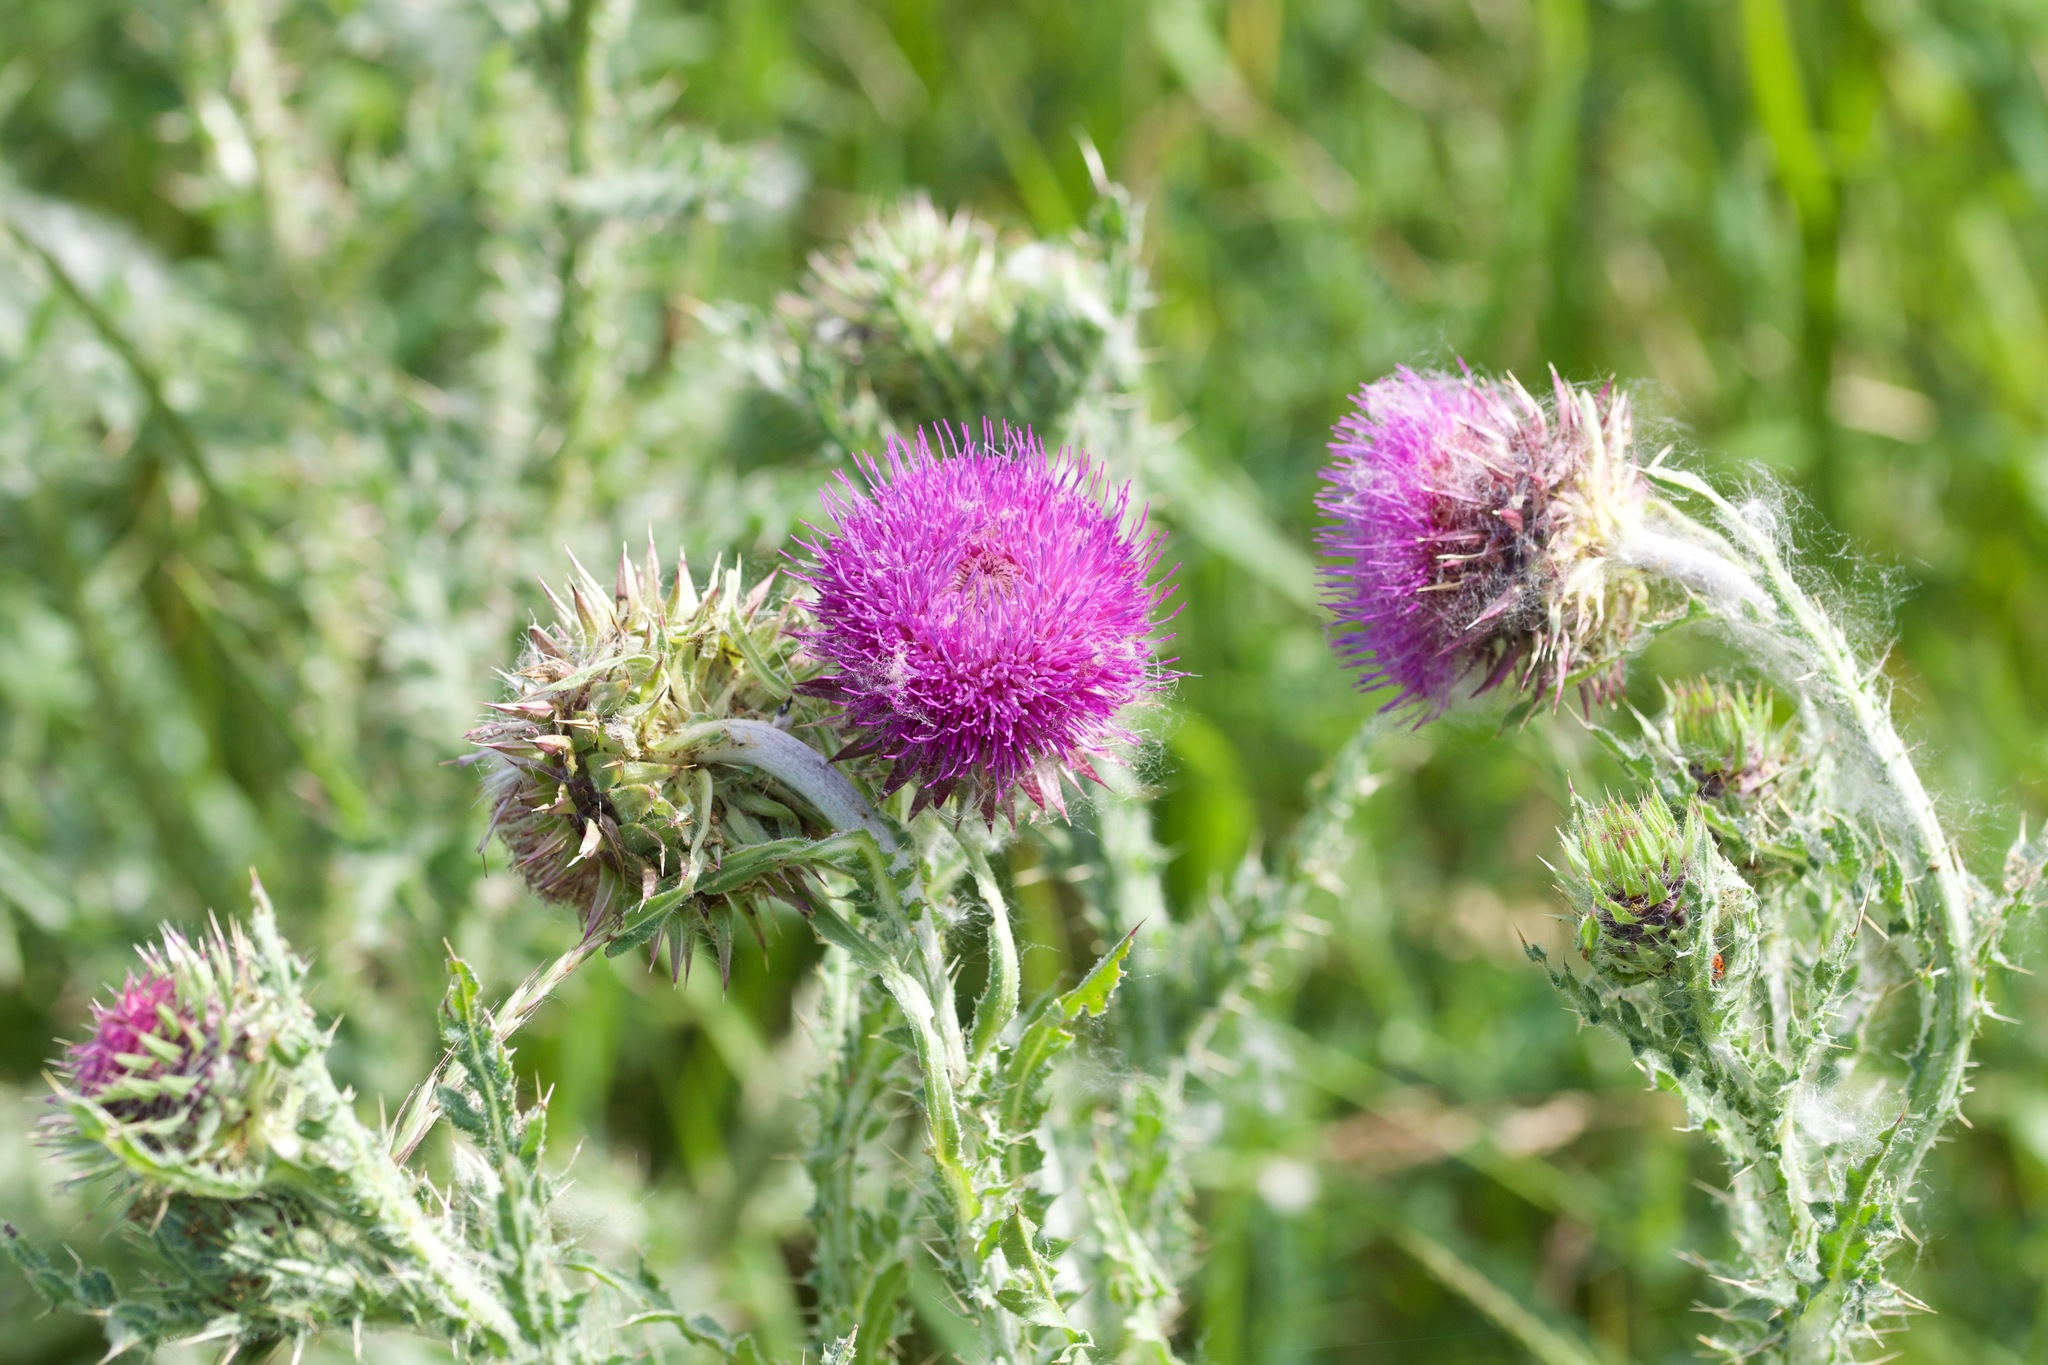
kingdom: Plantae
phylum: Tracheophyta
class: Magnoliopsida
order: Asterales
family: Asteraceae
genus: Carduus
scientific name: Carduus nutans
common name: Musk thistle
